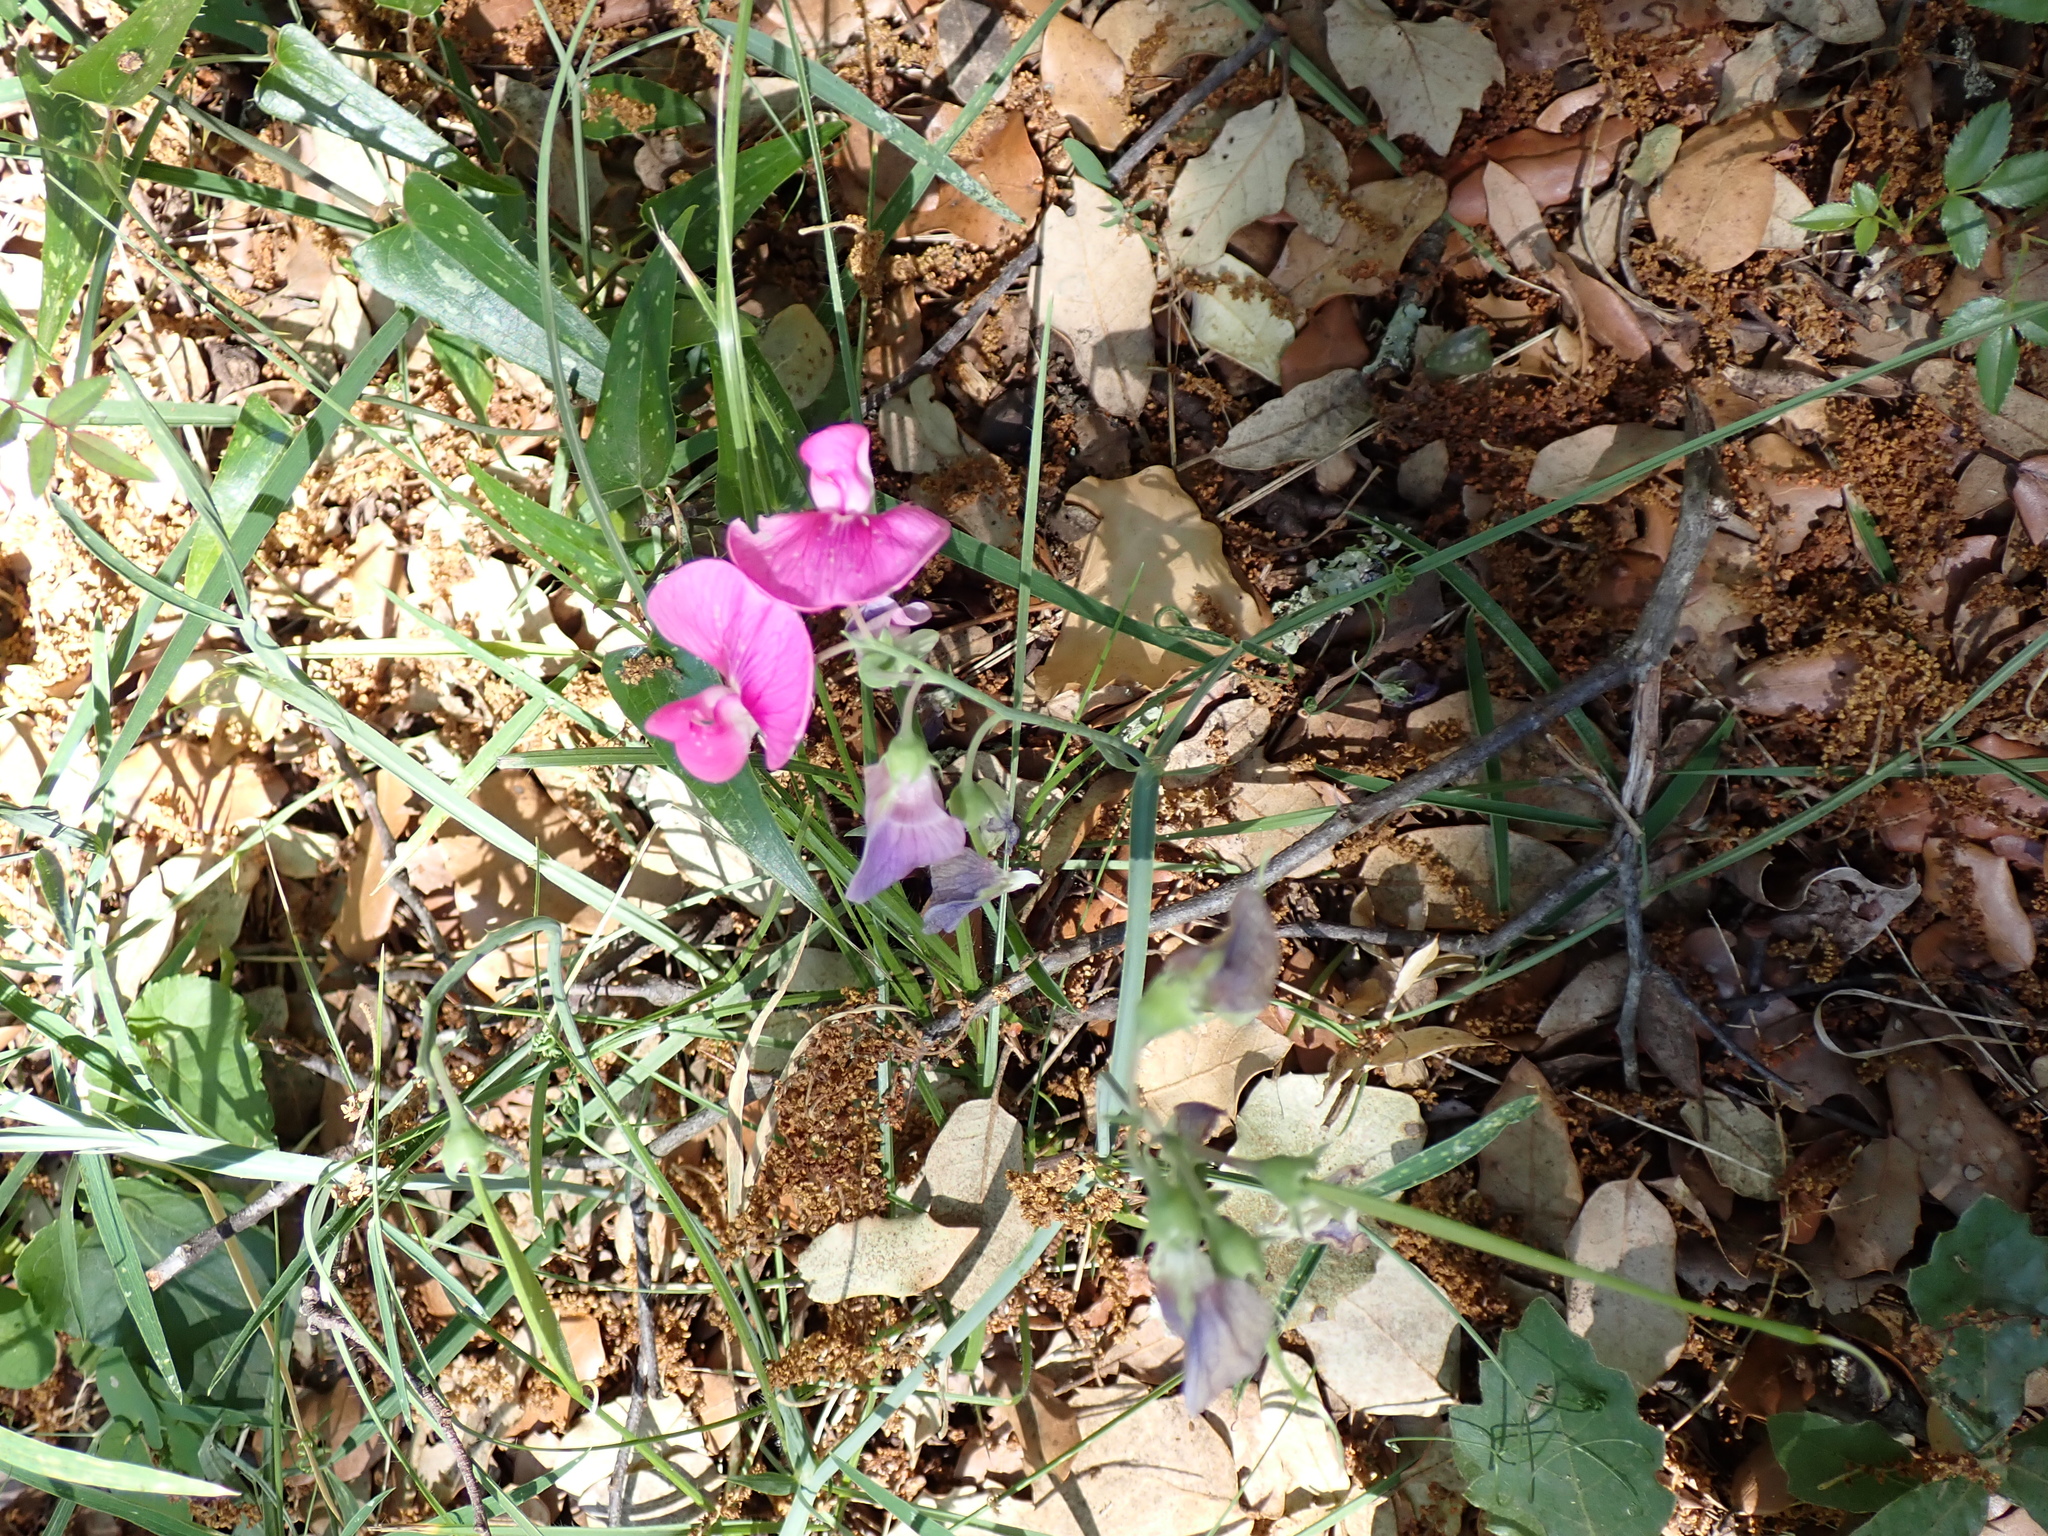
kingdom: Plantae
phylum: Tracheophyta
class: Magnoliopsida
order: Fabales
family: Fabaceae
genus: Lathyrus
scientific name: Lathyrus latifolius
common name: Perennial pea
